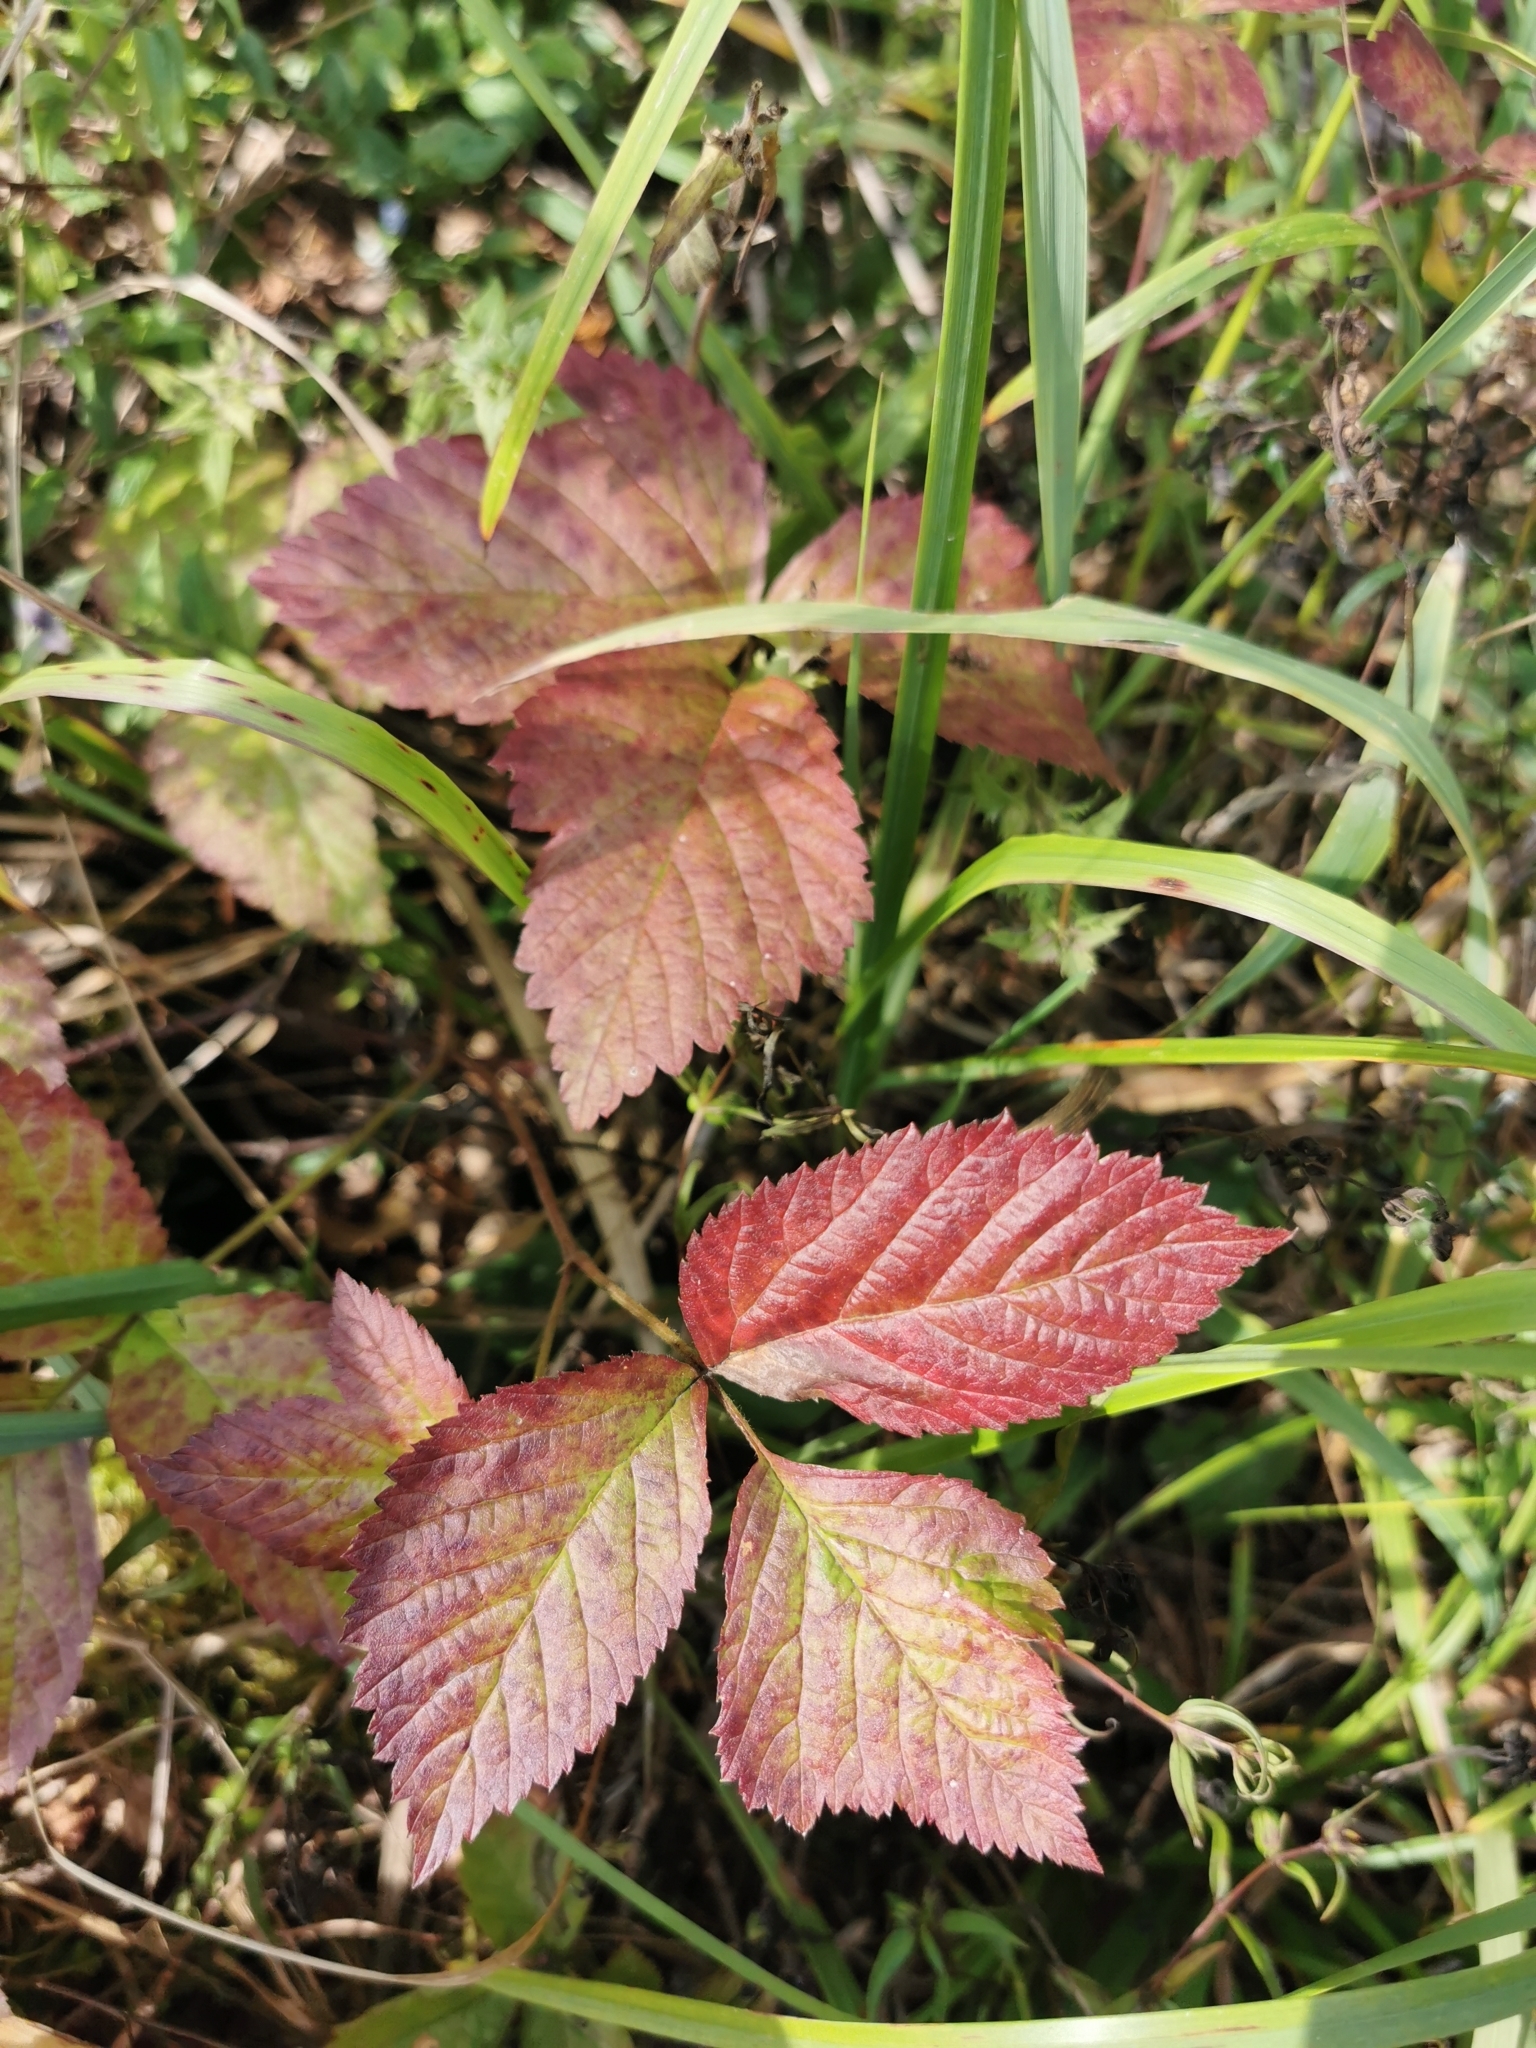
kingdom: Plantae
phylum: Tracheophyta
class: Magnoliopsida
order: Rosales
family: Rosaceae
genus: Rubus
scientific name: Rubus saxatilis
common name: Stone bramble
